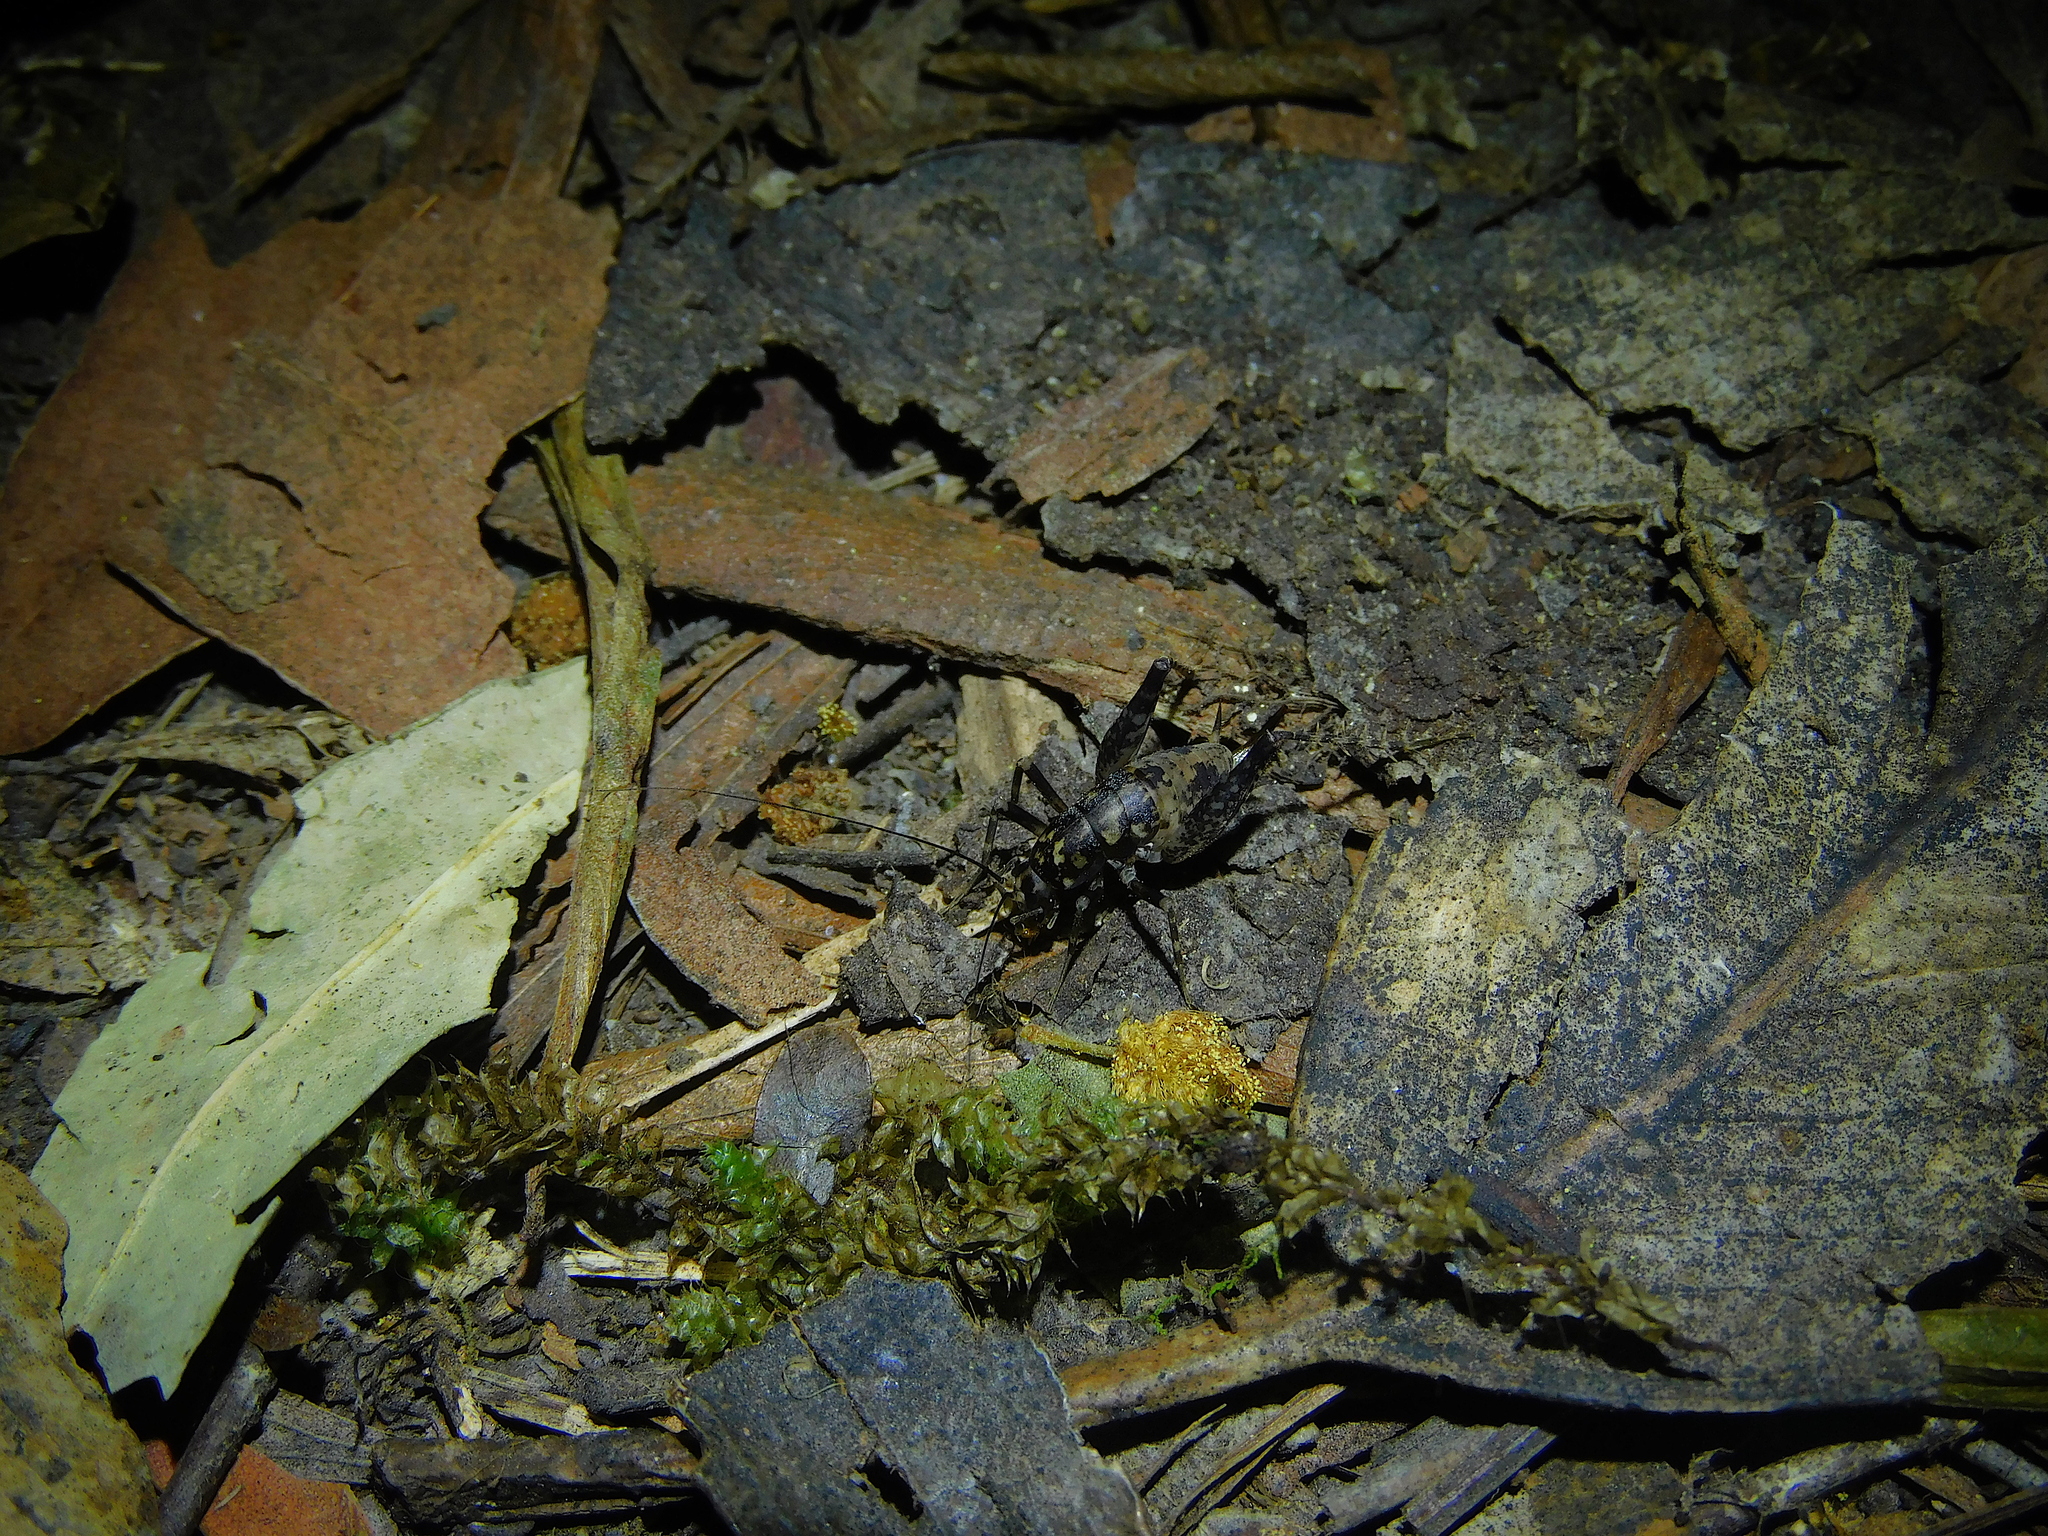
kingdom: Animalia
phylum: Arthropoda
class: Insecta
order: Orthoptera
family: Rhaphidophoridae
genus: Parvotettix
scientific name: Parvotettix domesticus
